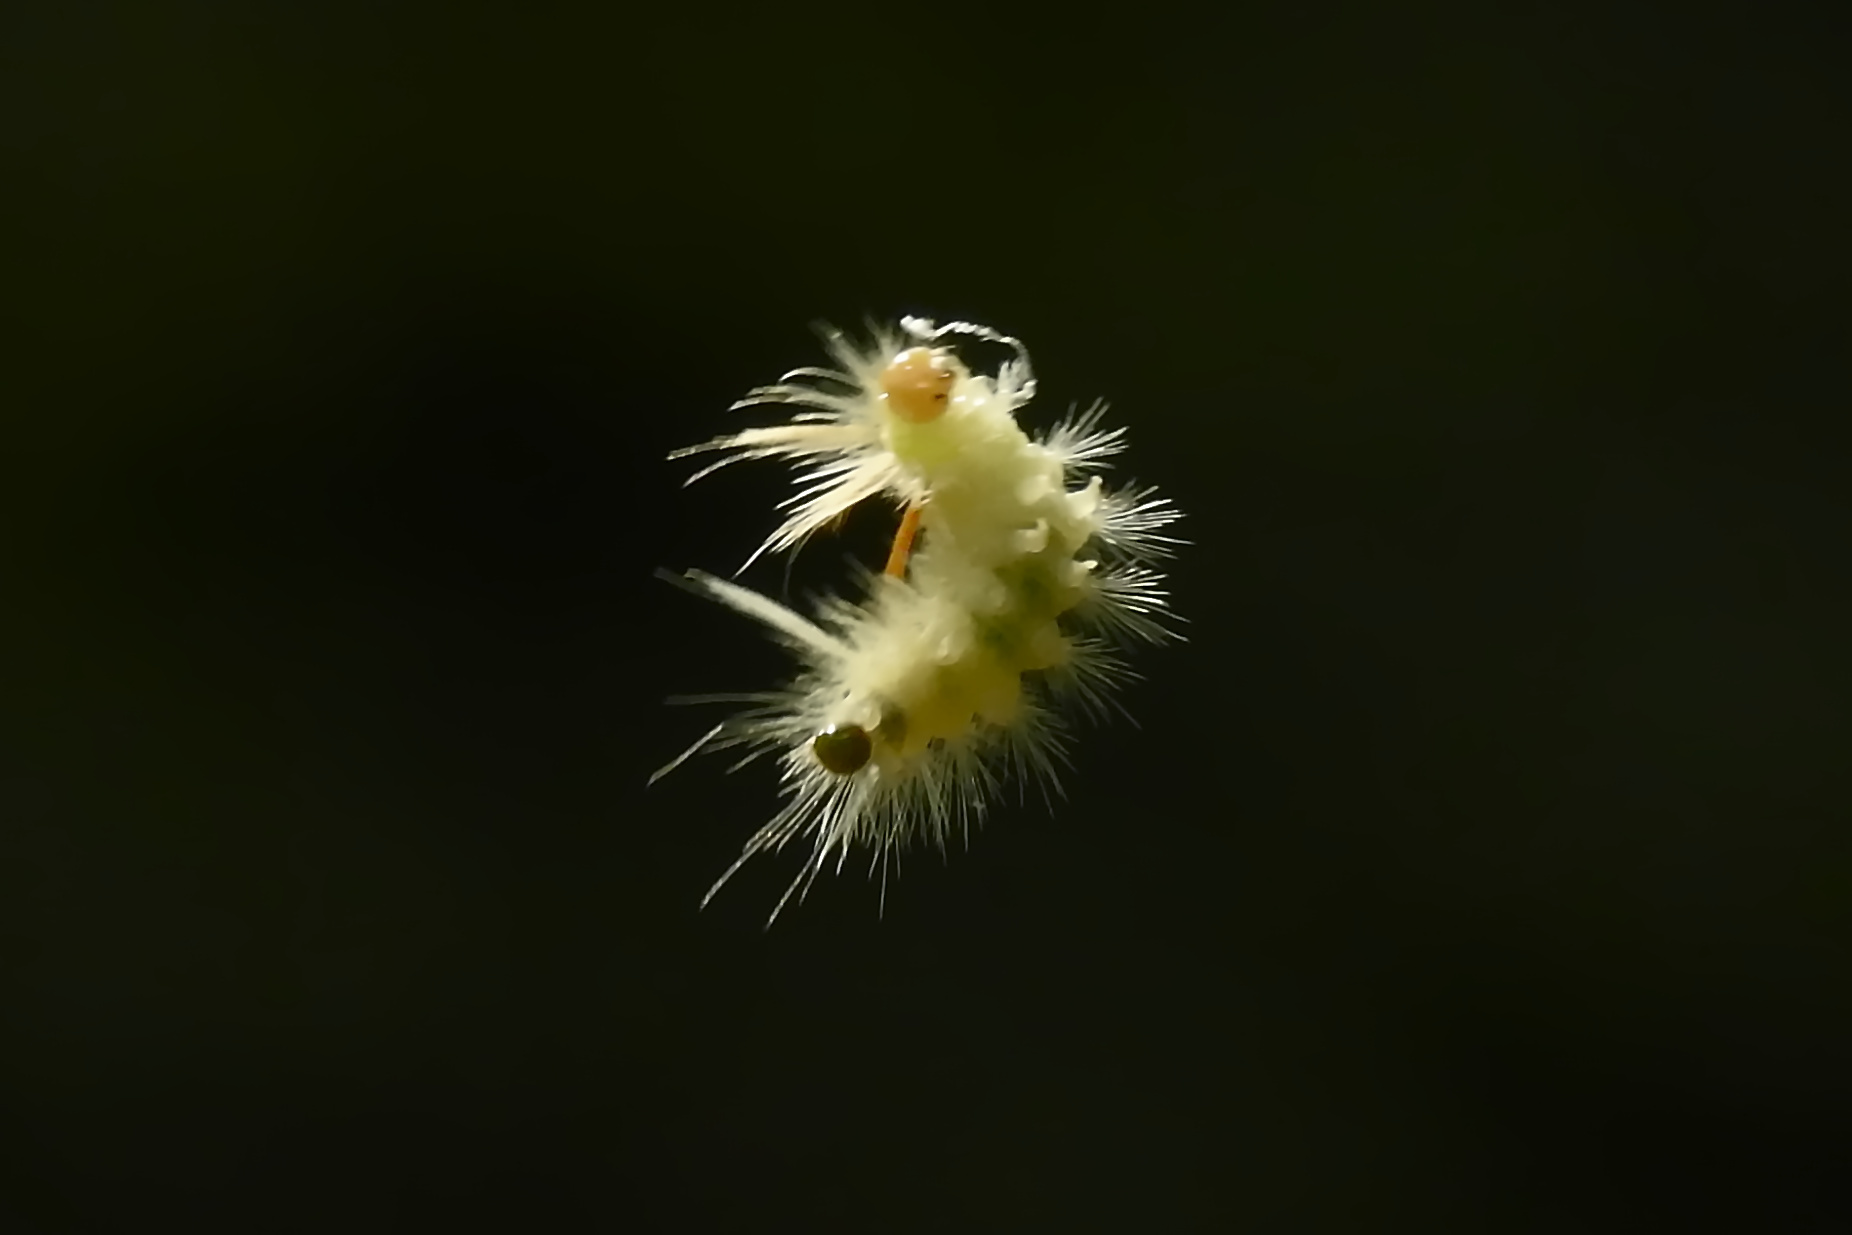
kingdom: Animalia
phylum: Arthropoda
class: Insecta
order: Lepidoptera
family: Erebidae
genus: Halysidota
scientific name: Halysidota harrisii
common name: Sycamore tussock moth
